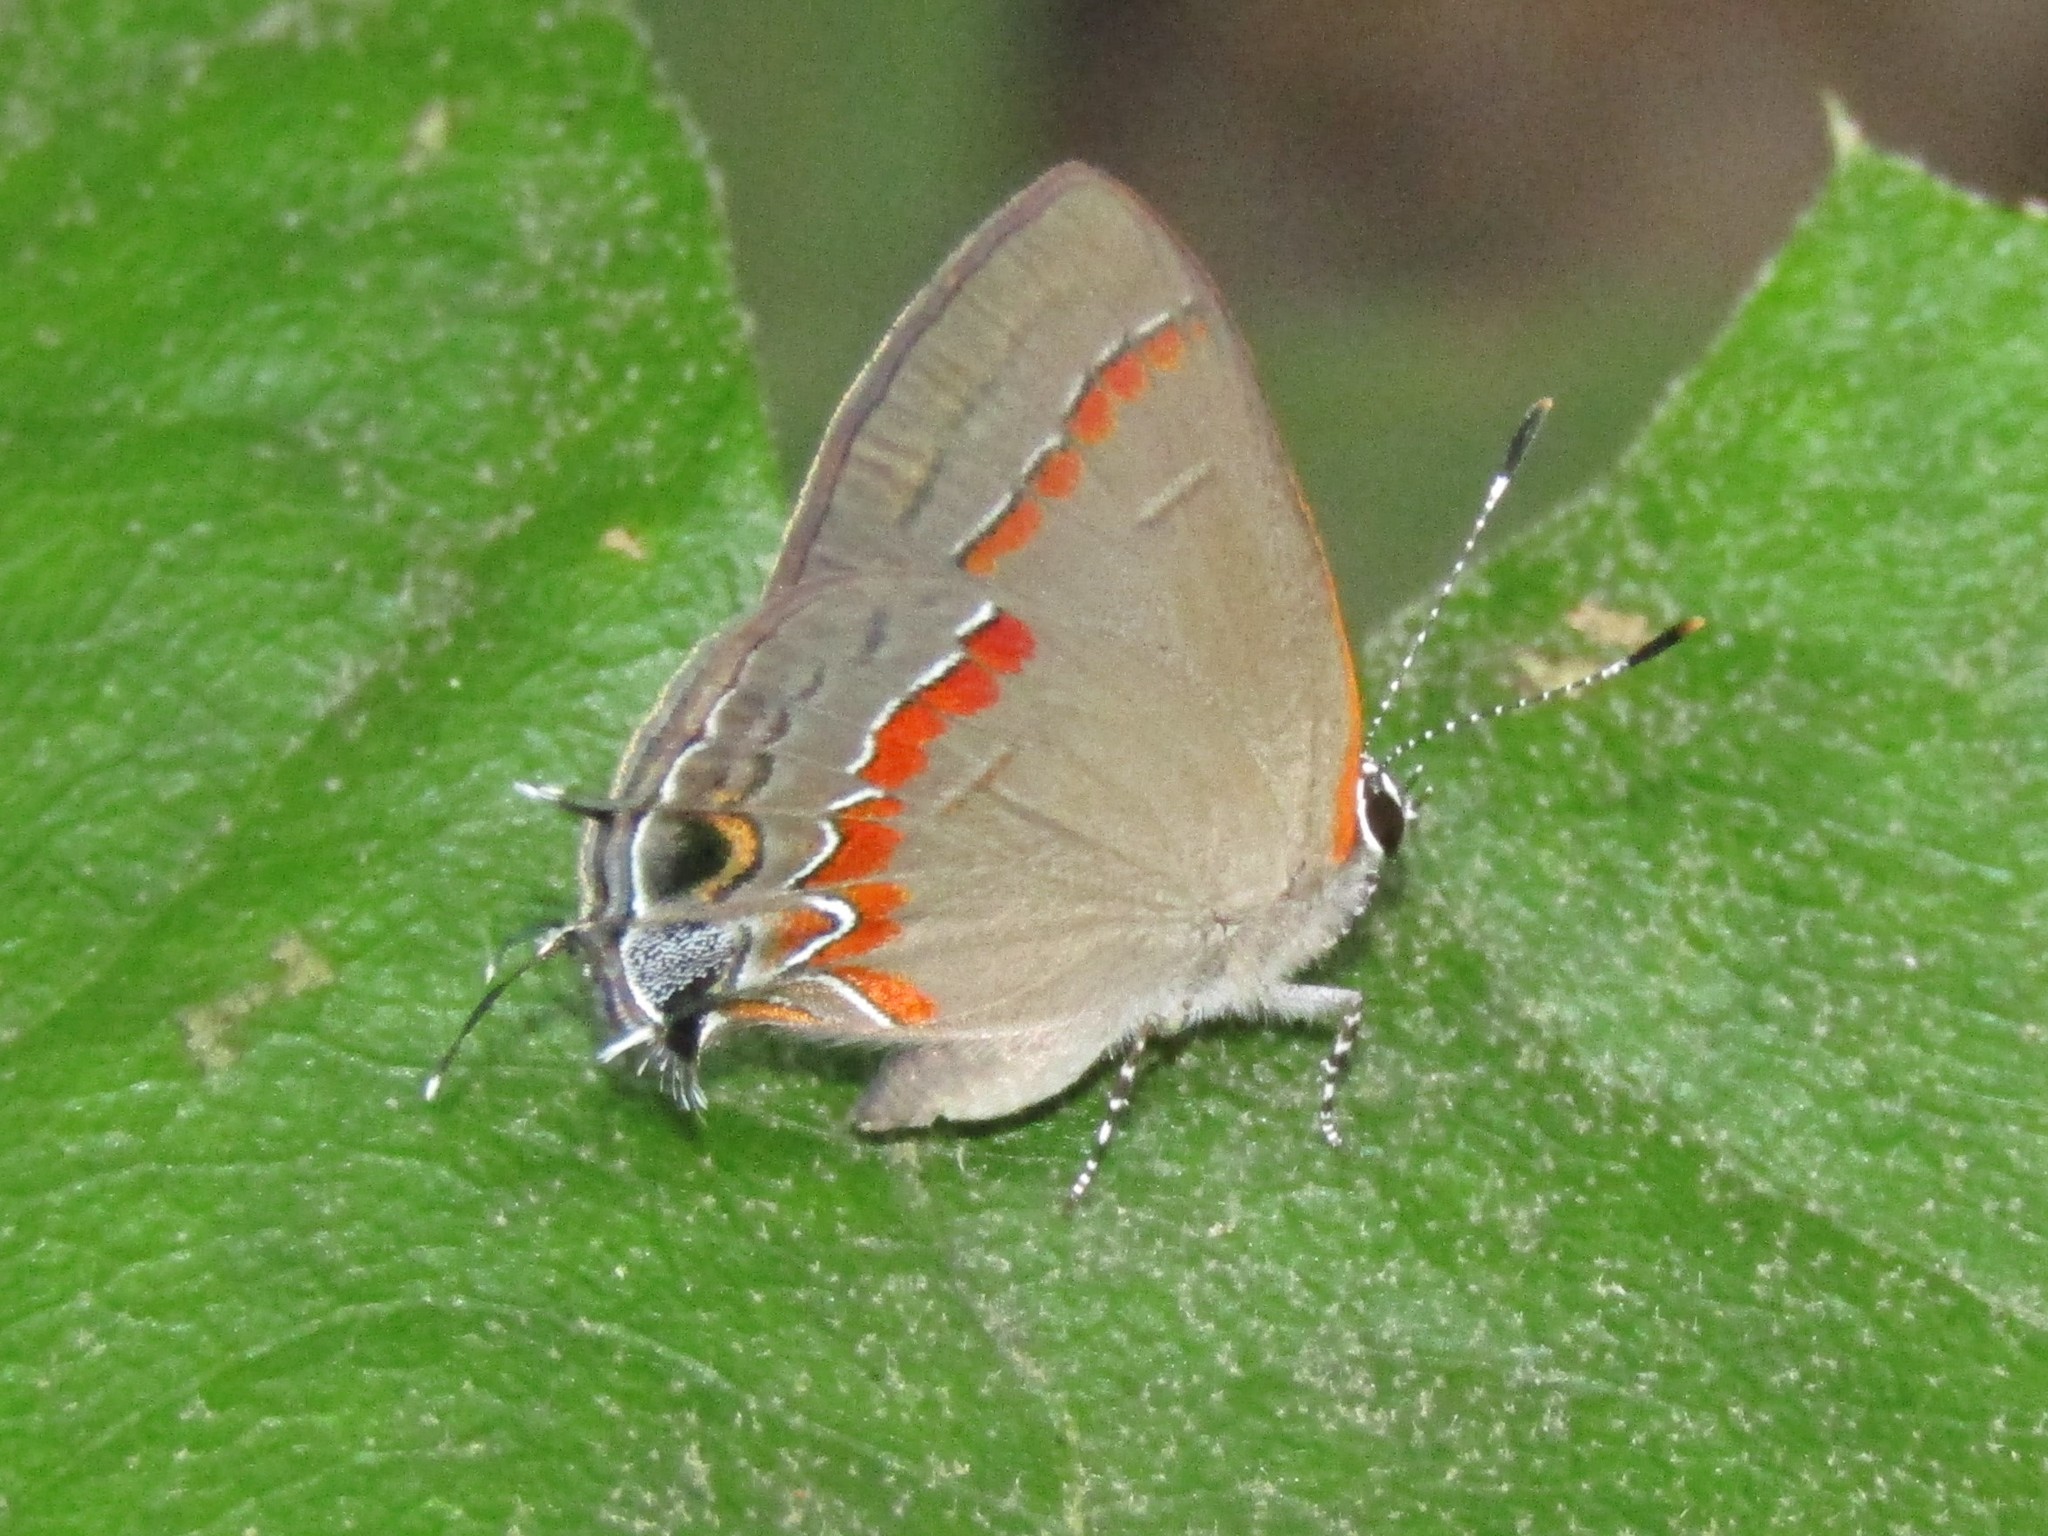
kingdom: Animalia
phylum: Arthropoda
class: Insecta
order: Lepidoptera
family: Lycaenidae
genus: Calycopis
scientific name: Calycopis cecrops
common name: Red-banded hairstreak
